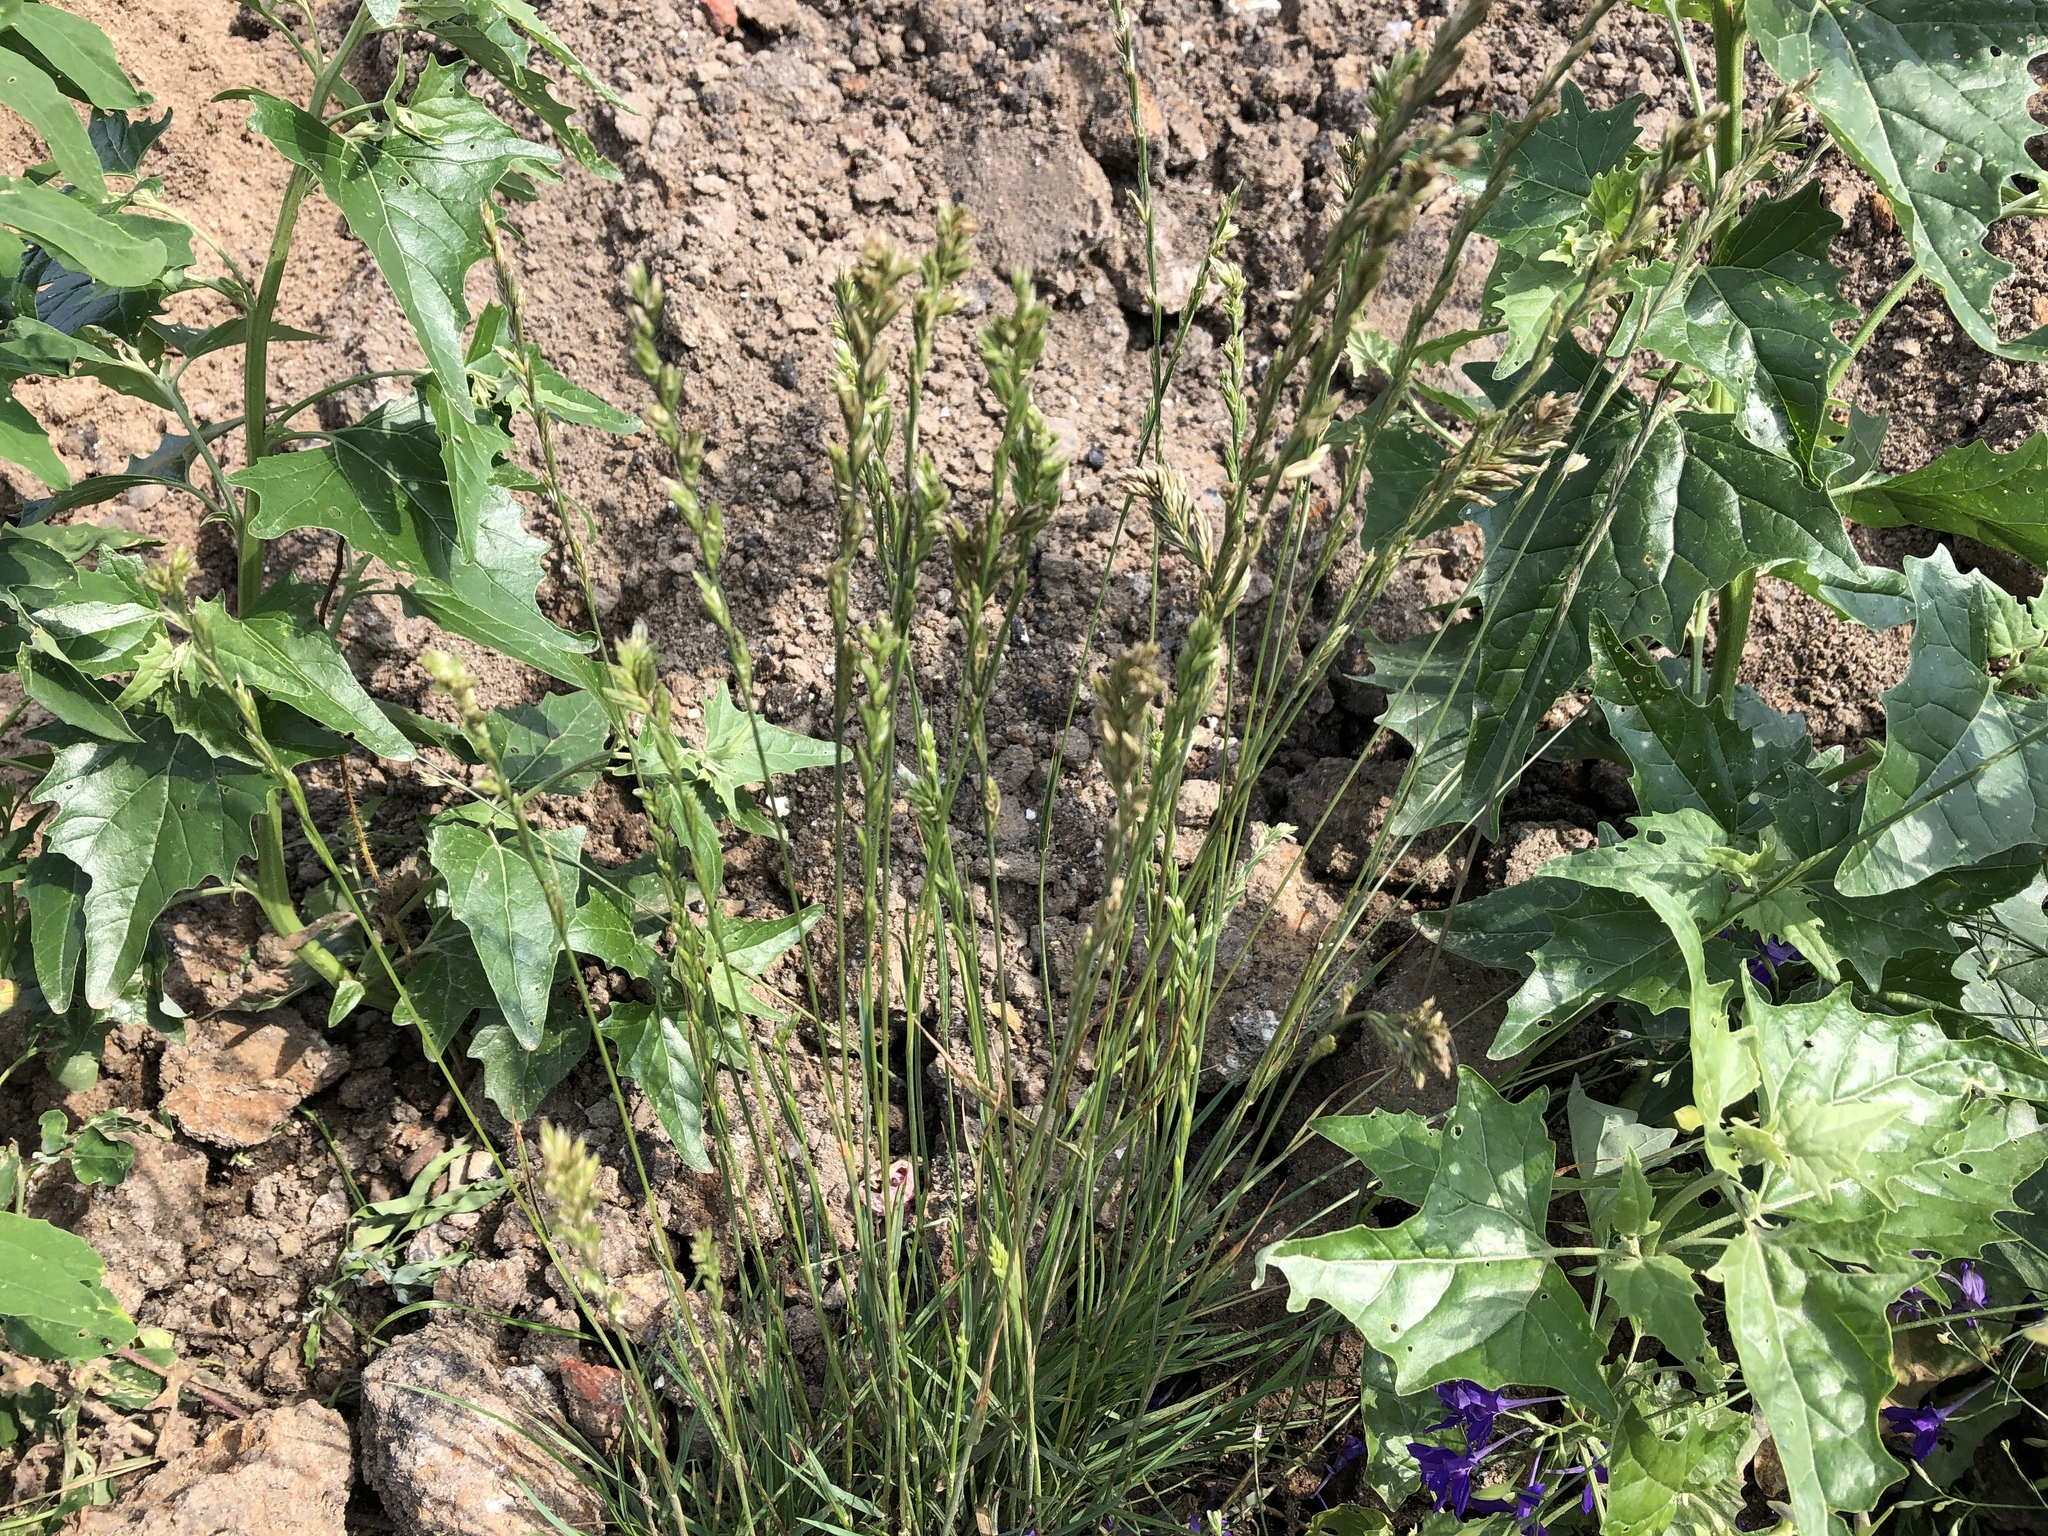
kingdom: Plantae
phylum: Tracheophyta
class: Liliopsida
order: Poales
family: Poaceae
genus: Lolium
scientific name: Lolium perenne
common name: Perennial ryegrass
